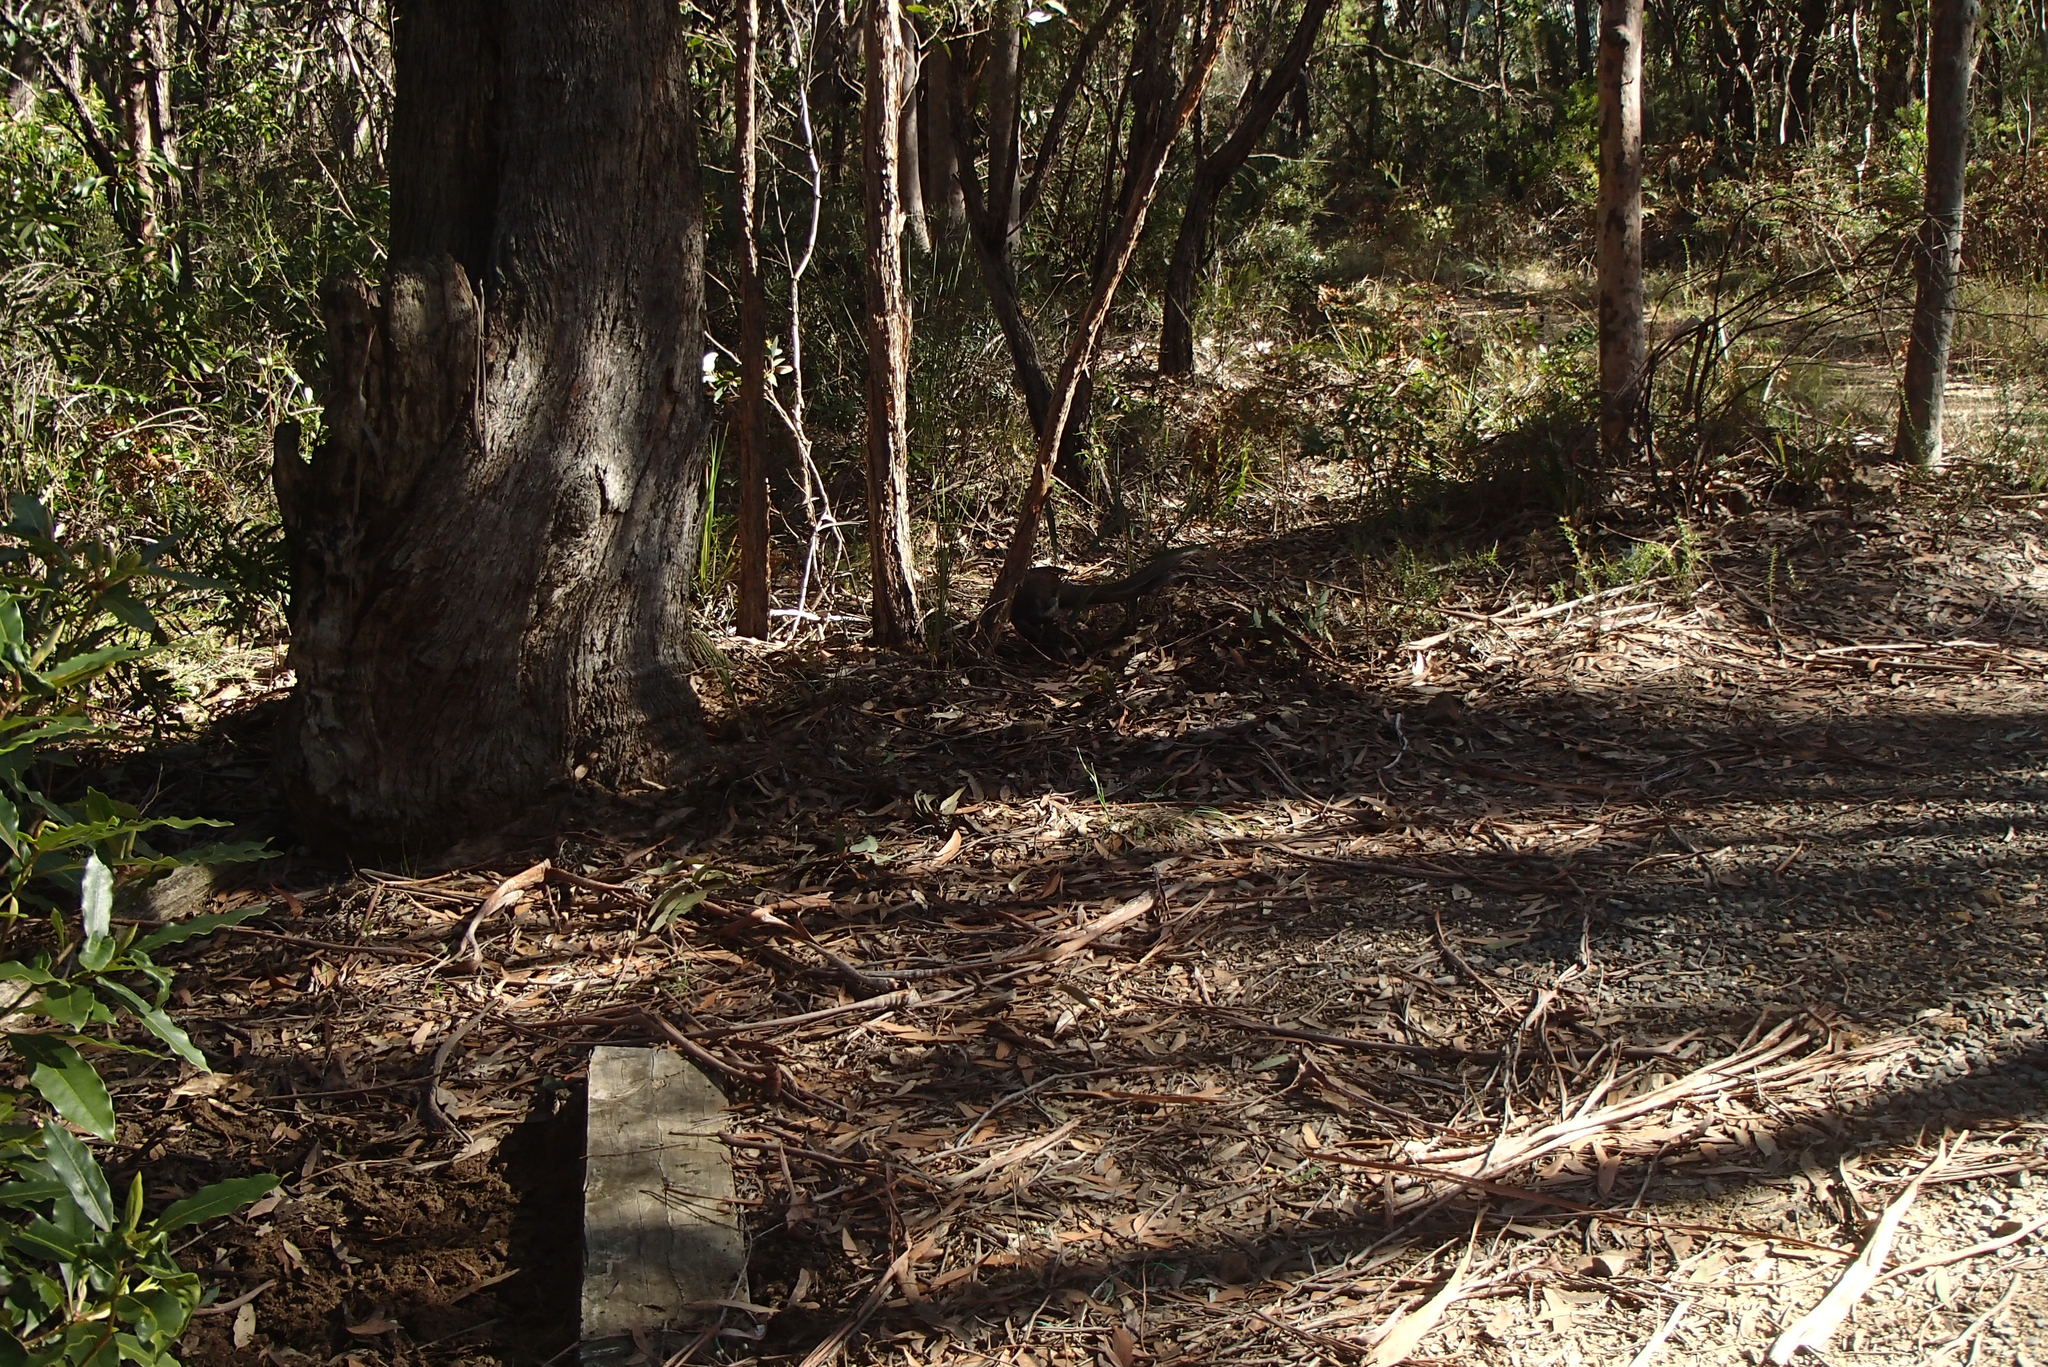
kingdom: Animalia
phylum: Chordata
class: Aves
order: Passeriformes
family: Menuridae
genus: Menura
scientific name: Menura novaehollandiae
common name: Superb lyrebird
